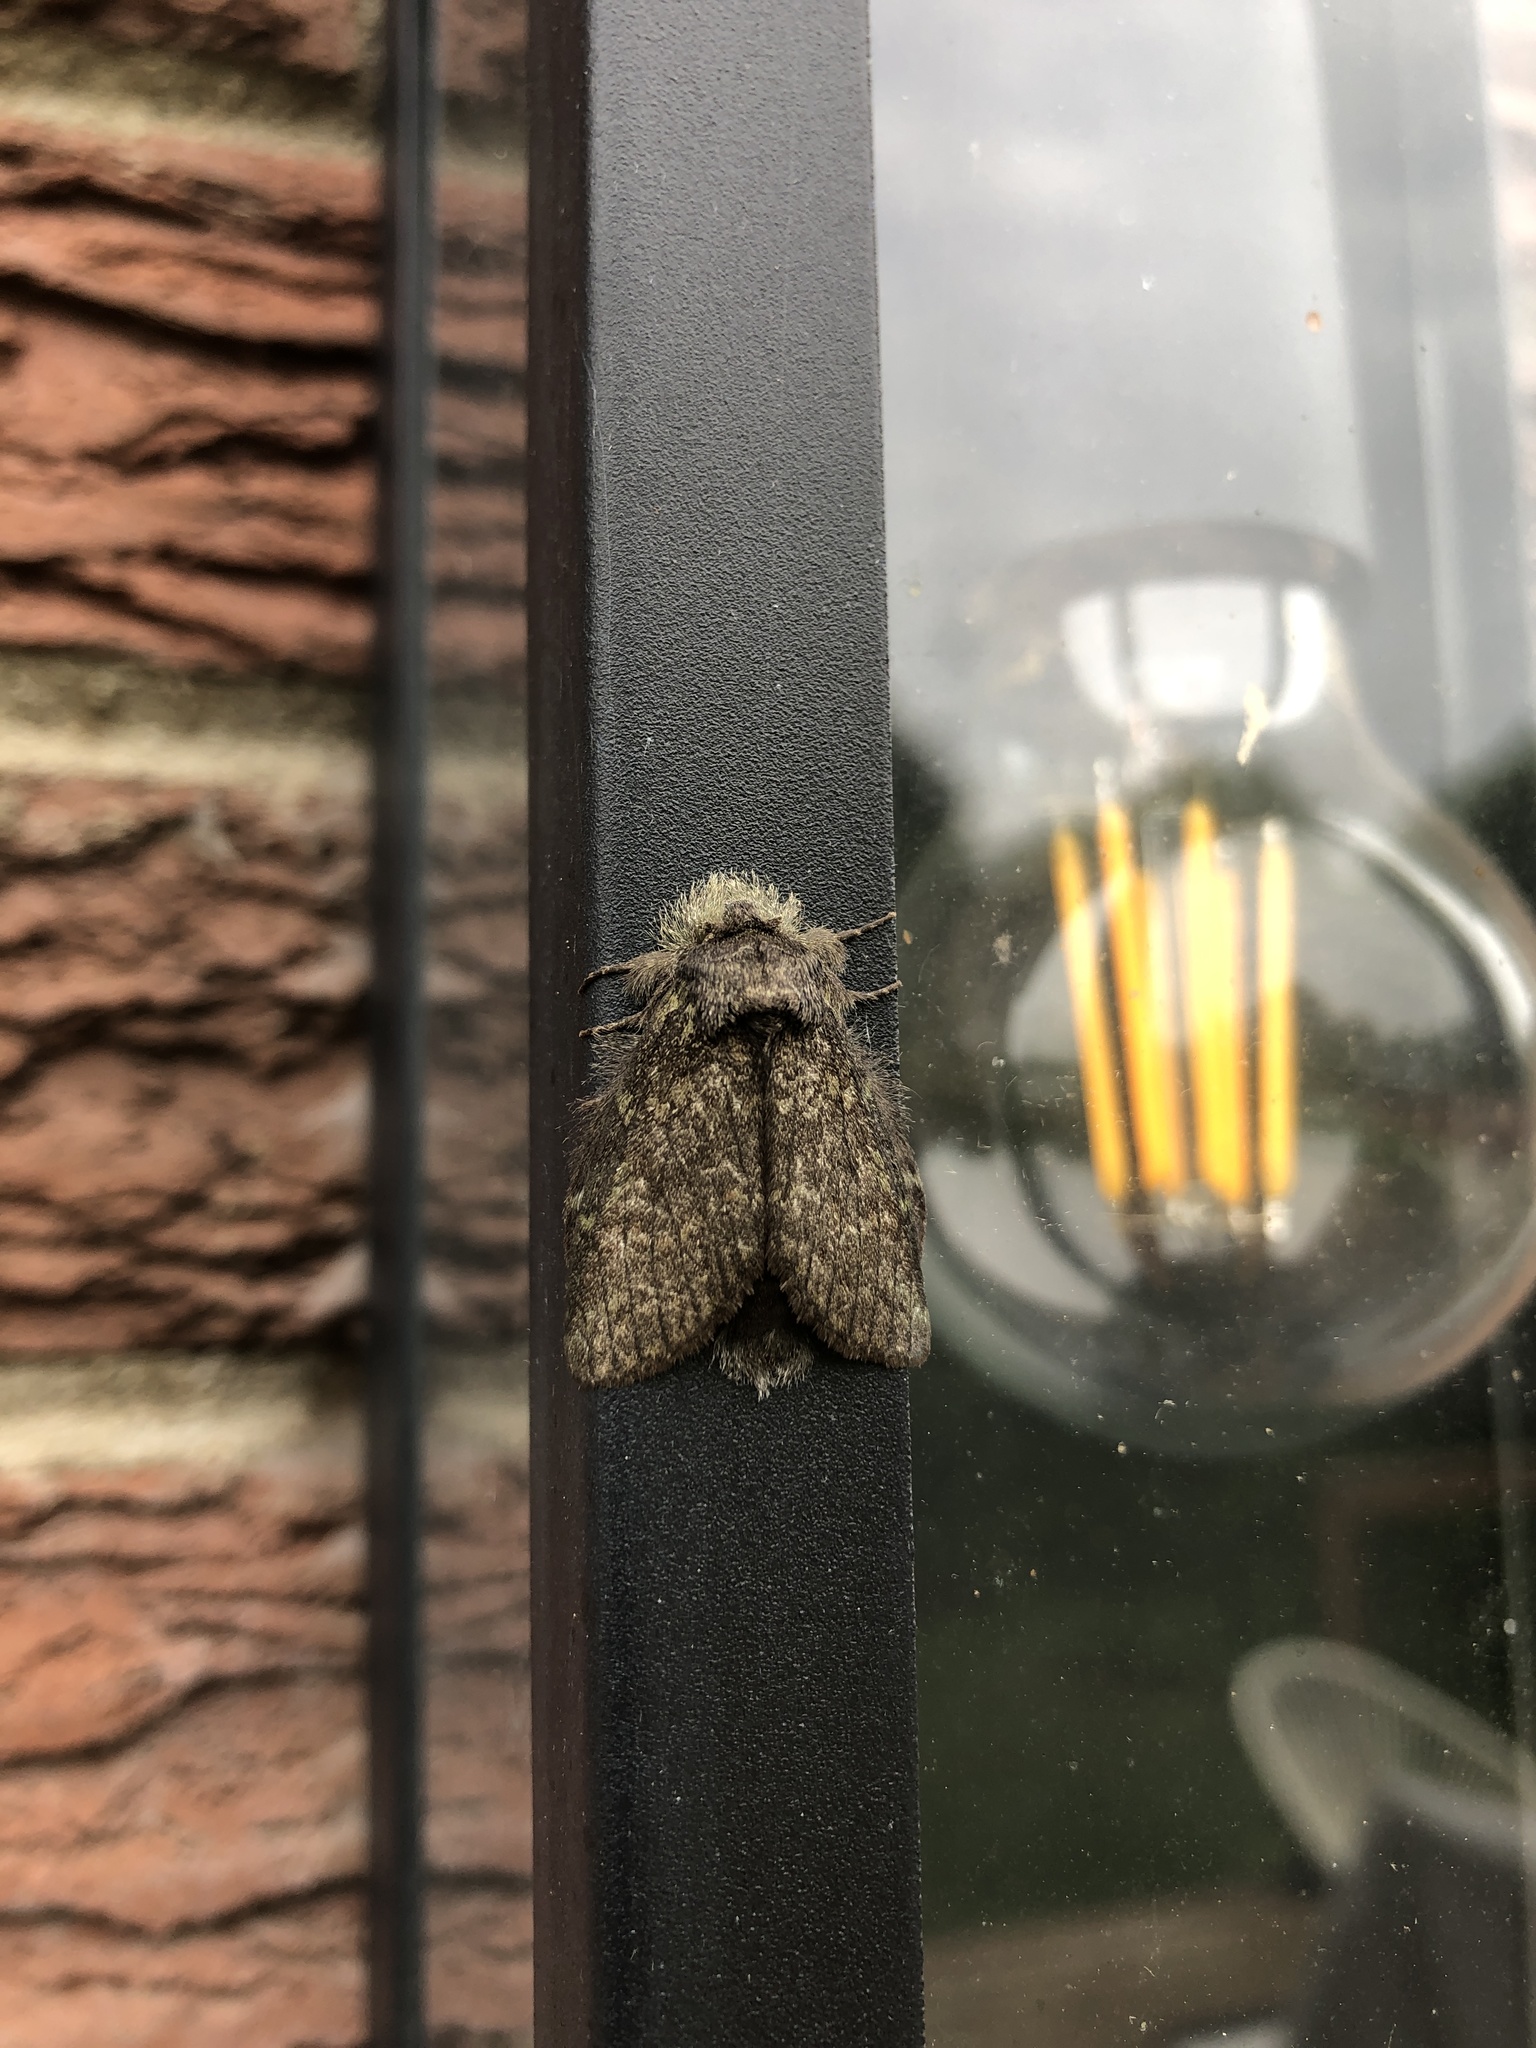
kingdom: Animalia
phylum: Arthropoda
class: Insecta
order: Lepidoptera
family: Notodontidae
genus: Disphragis
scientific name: Disphragis Cecrita guttivitta
